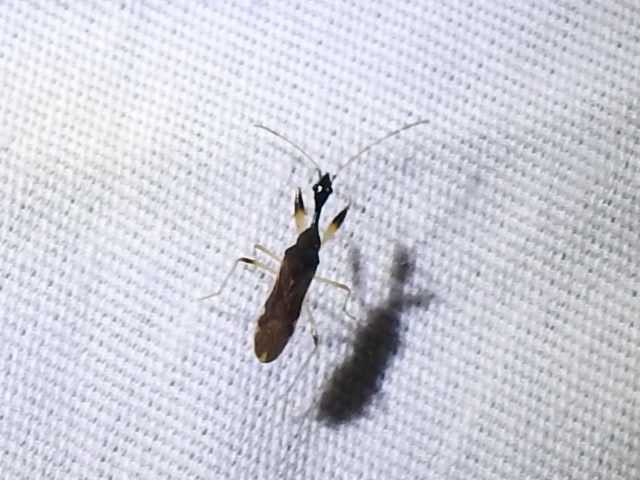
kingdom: Animalia
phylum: Arthropoda
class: Insecta
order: Hemiptera
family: Rhyparochromidae
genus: Myodocha
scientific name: Myodocha serripes
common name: Long-necked seed bug
